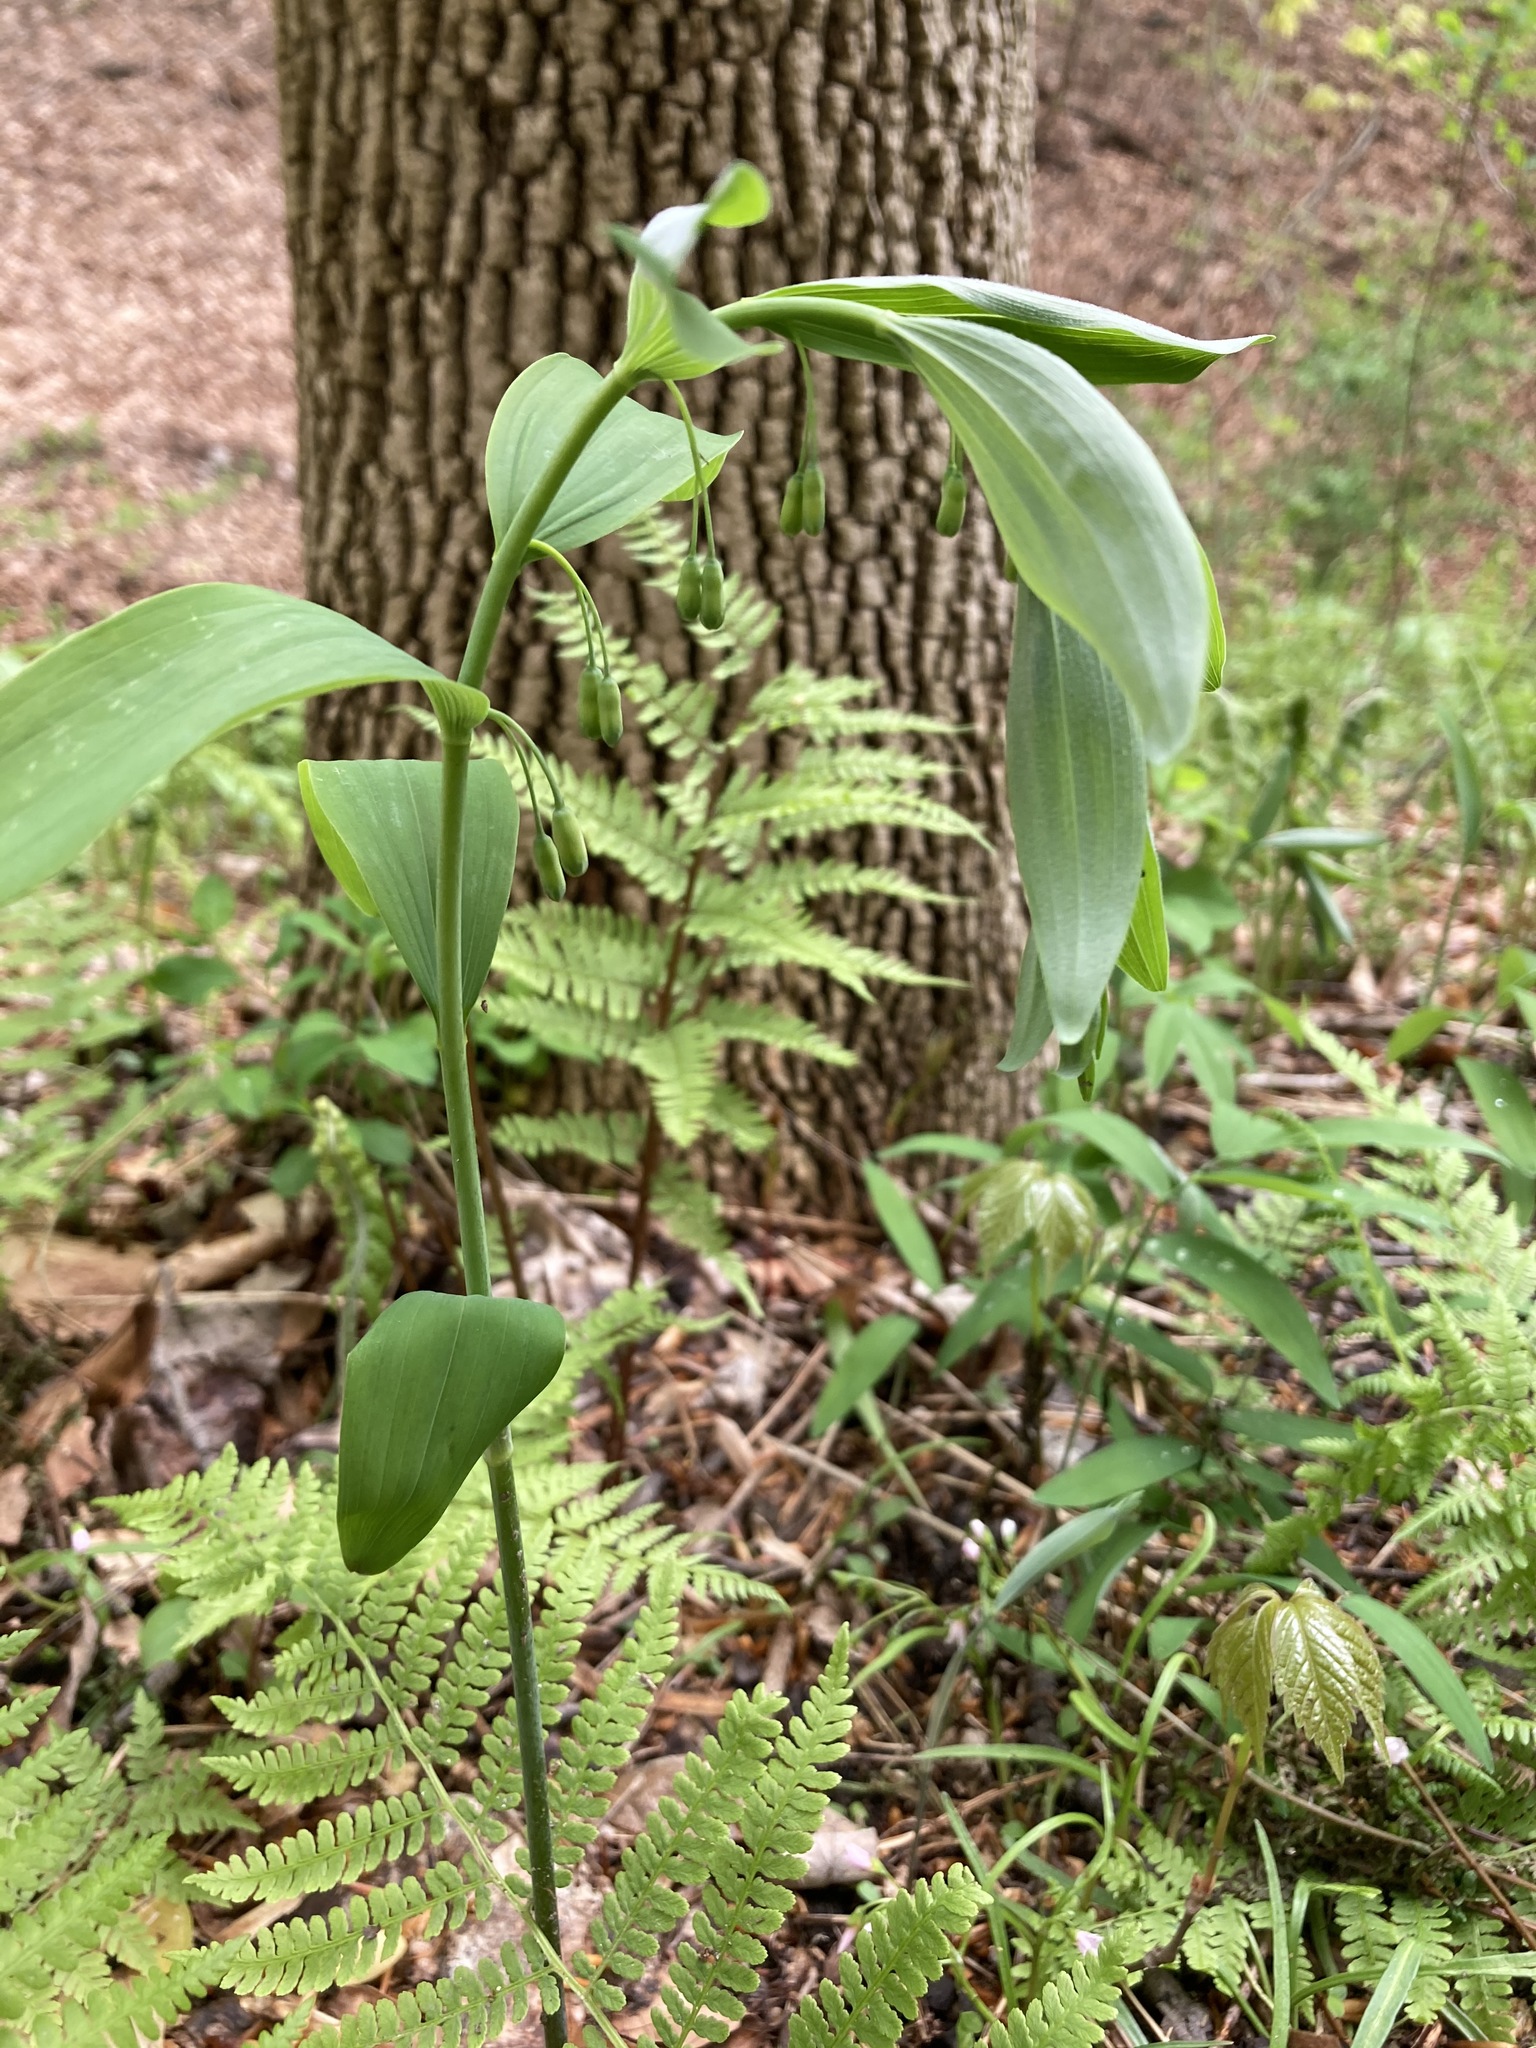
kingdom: Plantae
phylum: Tracheophyta
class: Liliopsida
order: Asparagales
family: Asparagaceae
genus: Polygonatum
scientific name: Polygonatum pubescens
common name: Downy solomon's seal
